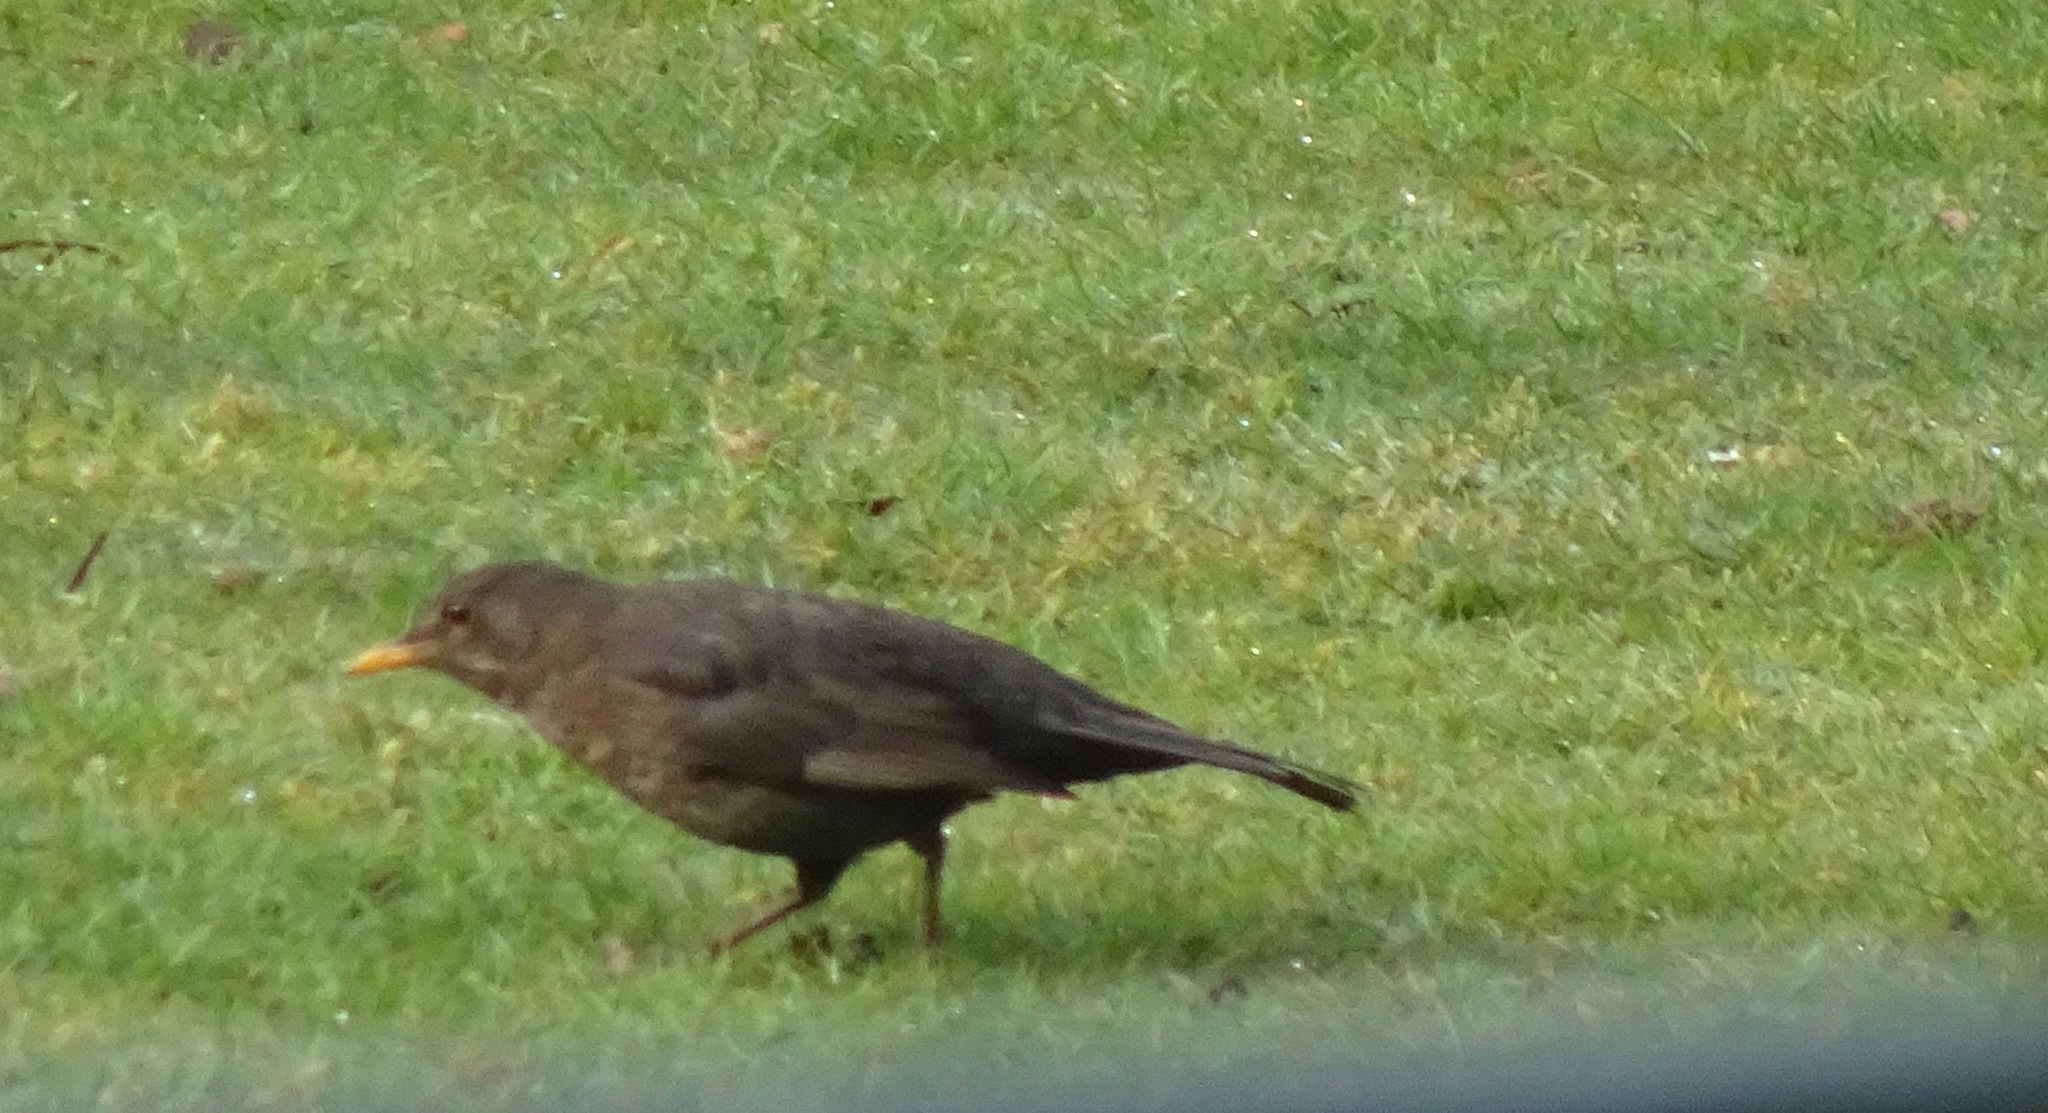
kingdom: Animalia
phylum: Chordata
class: Aves
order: Passeriformes
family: Turdidae
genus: Turdus
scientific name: Turdus merula
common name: Common blackbird
